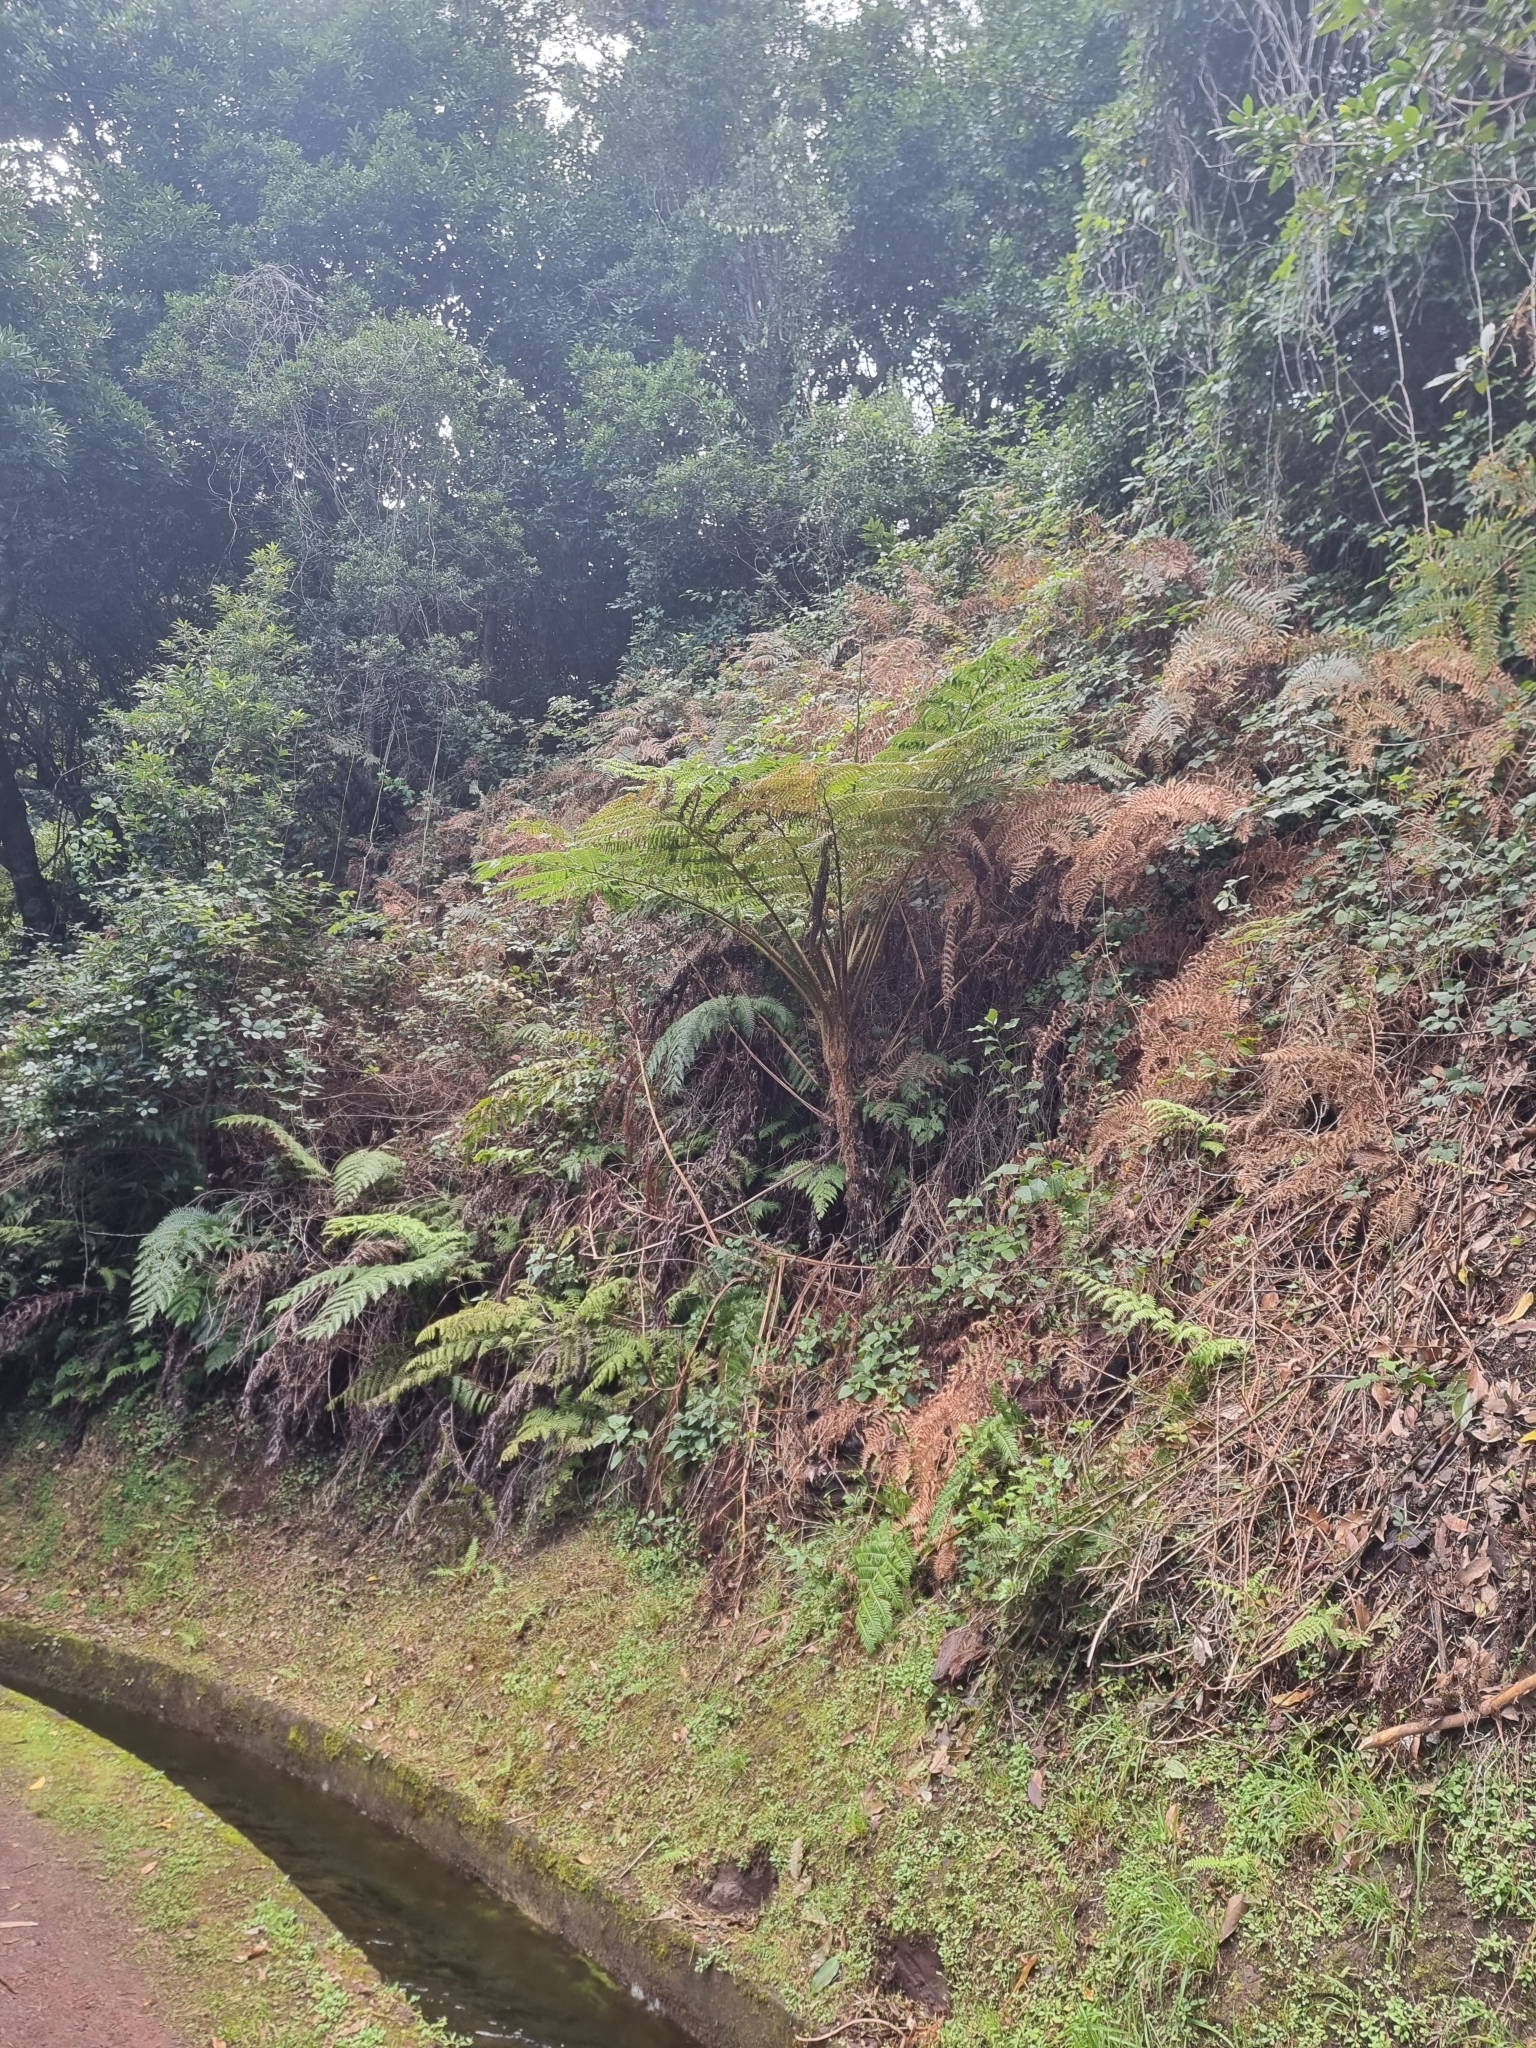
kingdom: Plantae
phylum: Tracheophyta
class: Polypodiopsida
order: Cyatheales
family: Cyatheaceae
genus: Sphaeropteris
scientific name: Sphaeropteris cooperi
